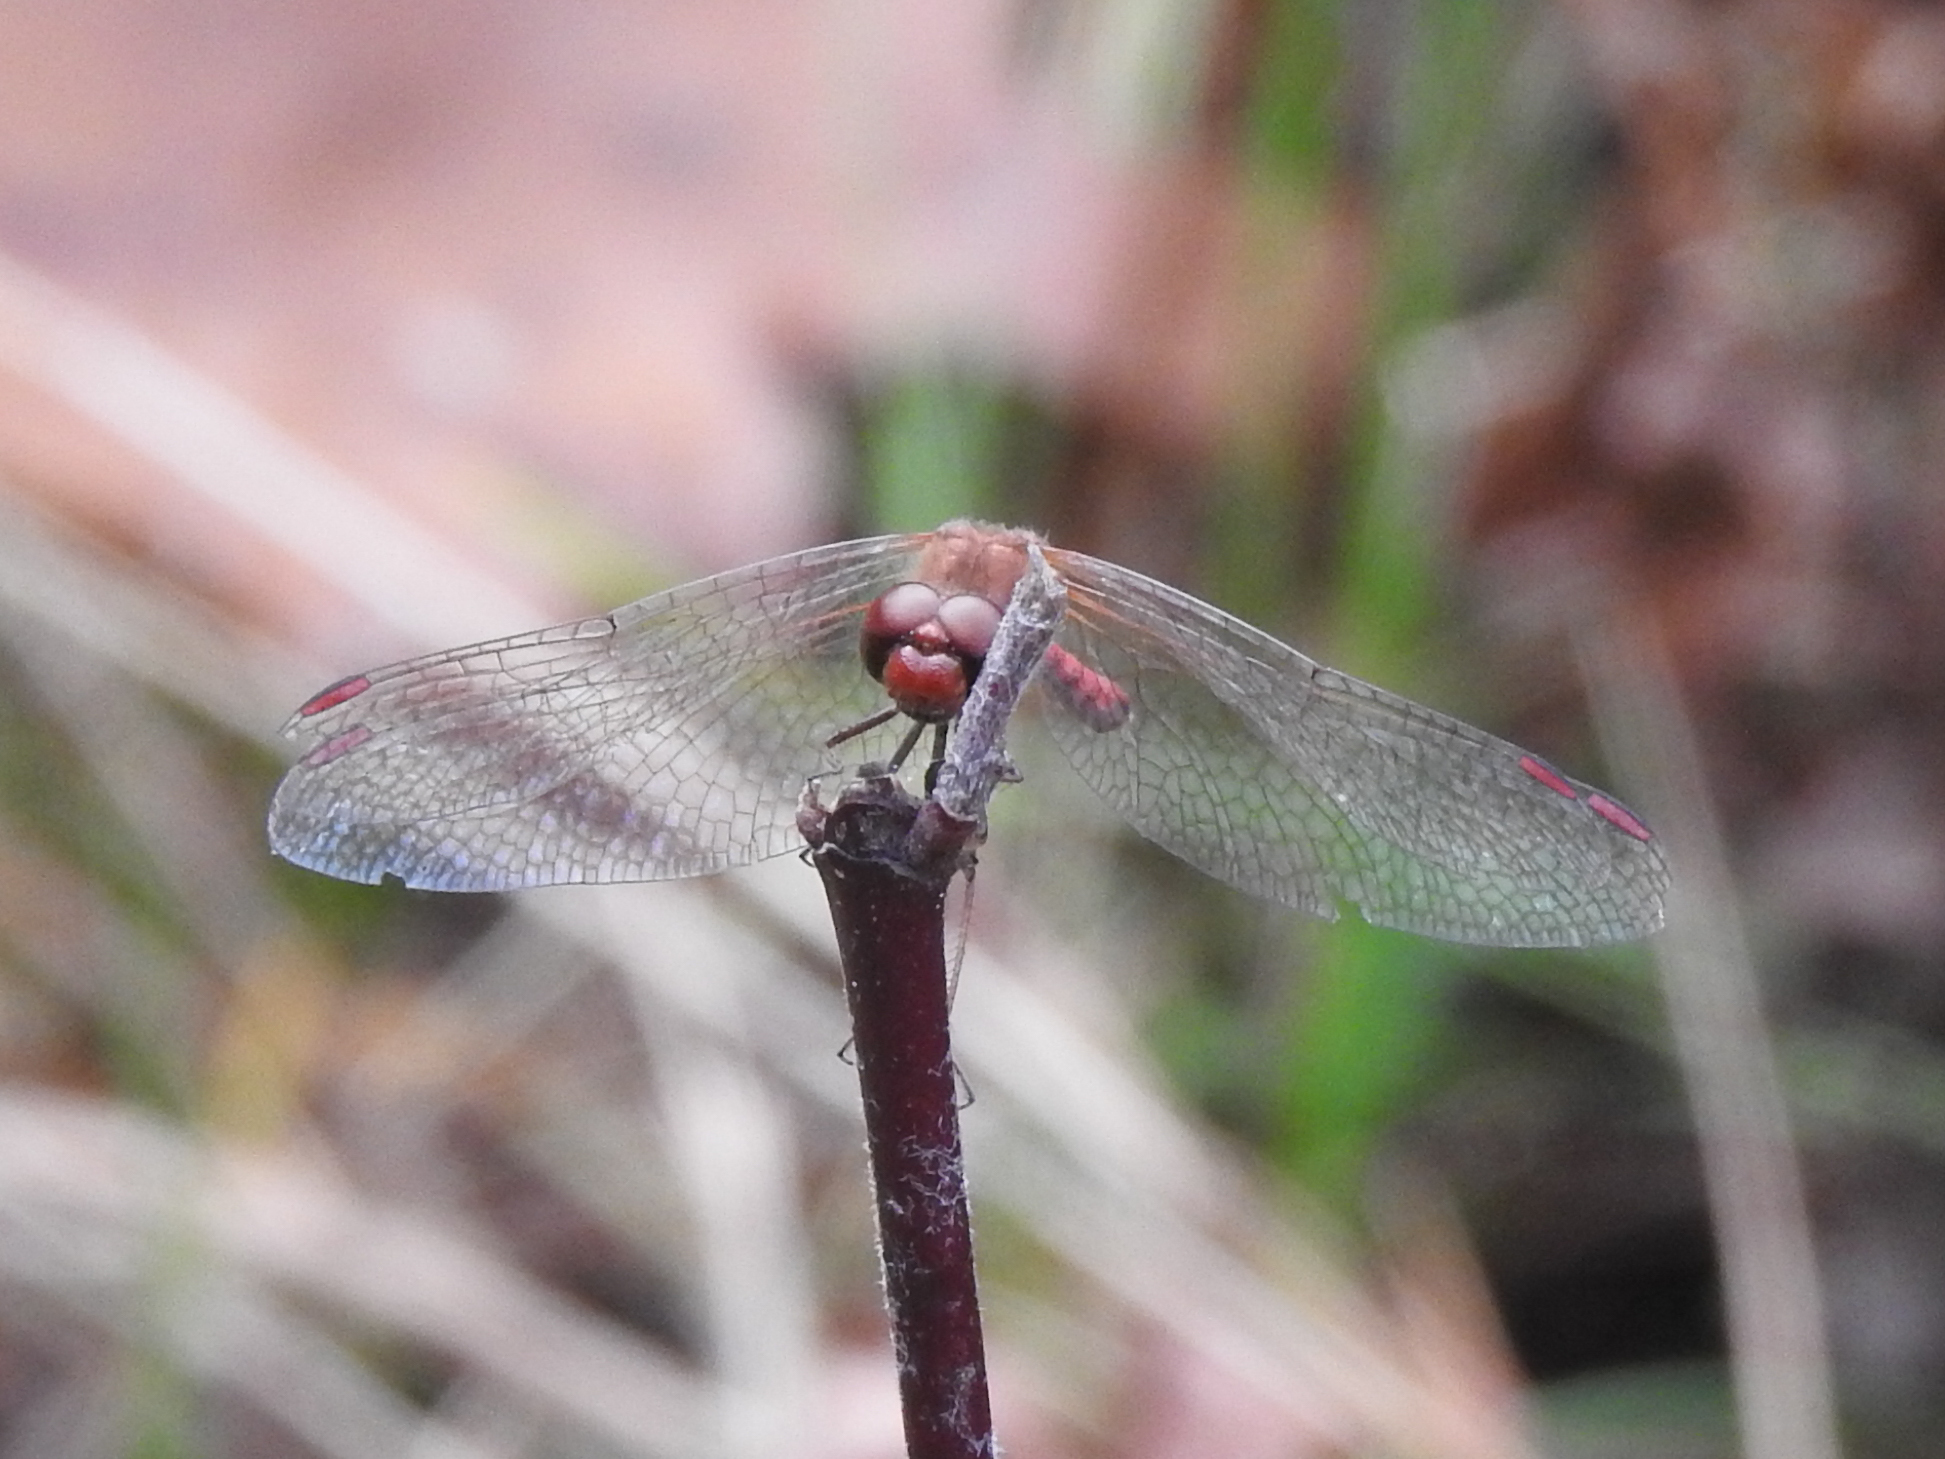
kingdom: Animalia
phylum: Arthropoda
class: Insecta
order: Odonata
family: Libellulidae
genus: Sympetrum
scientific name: Sympetrum vicinum
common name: Autumn meadowhawk
